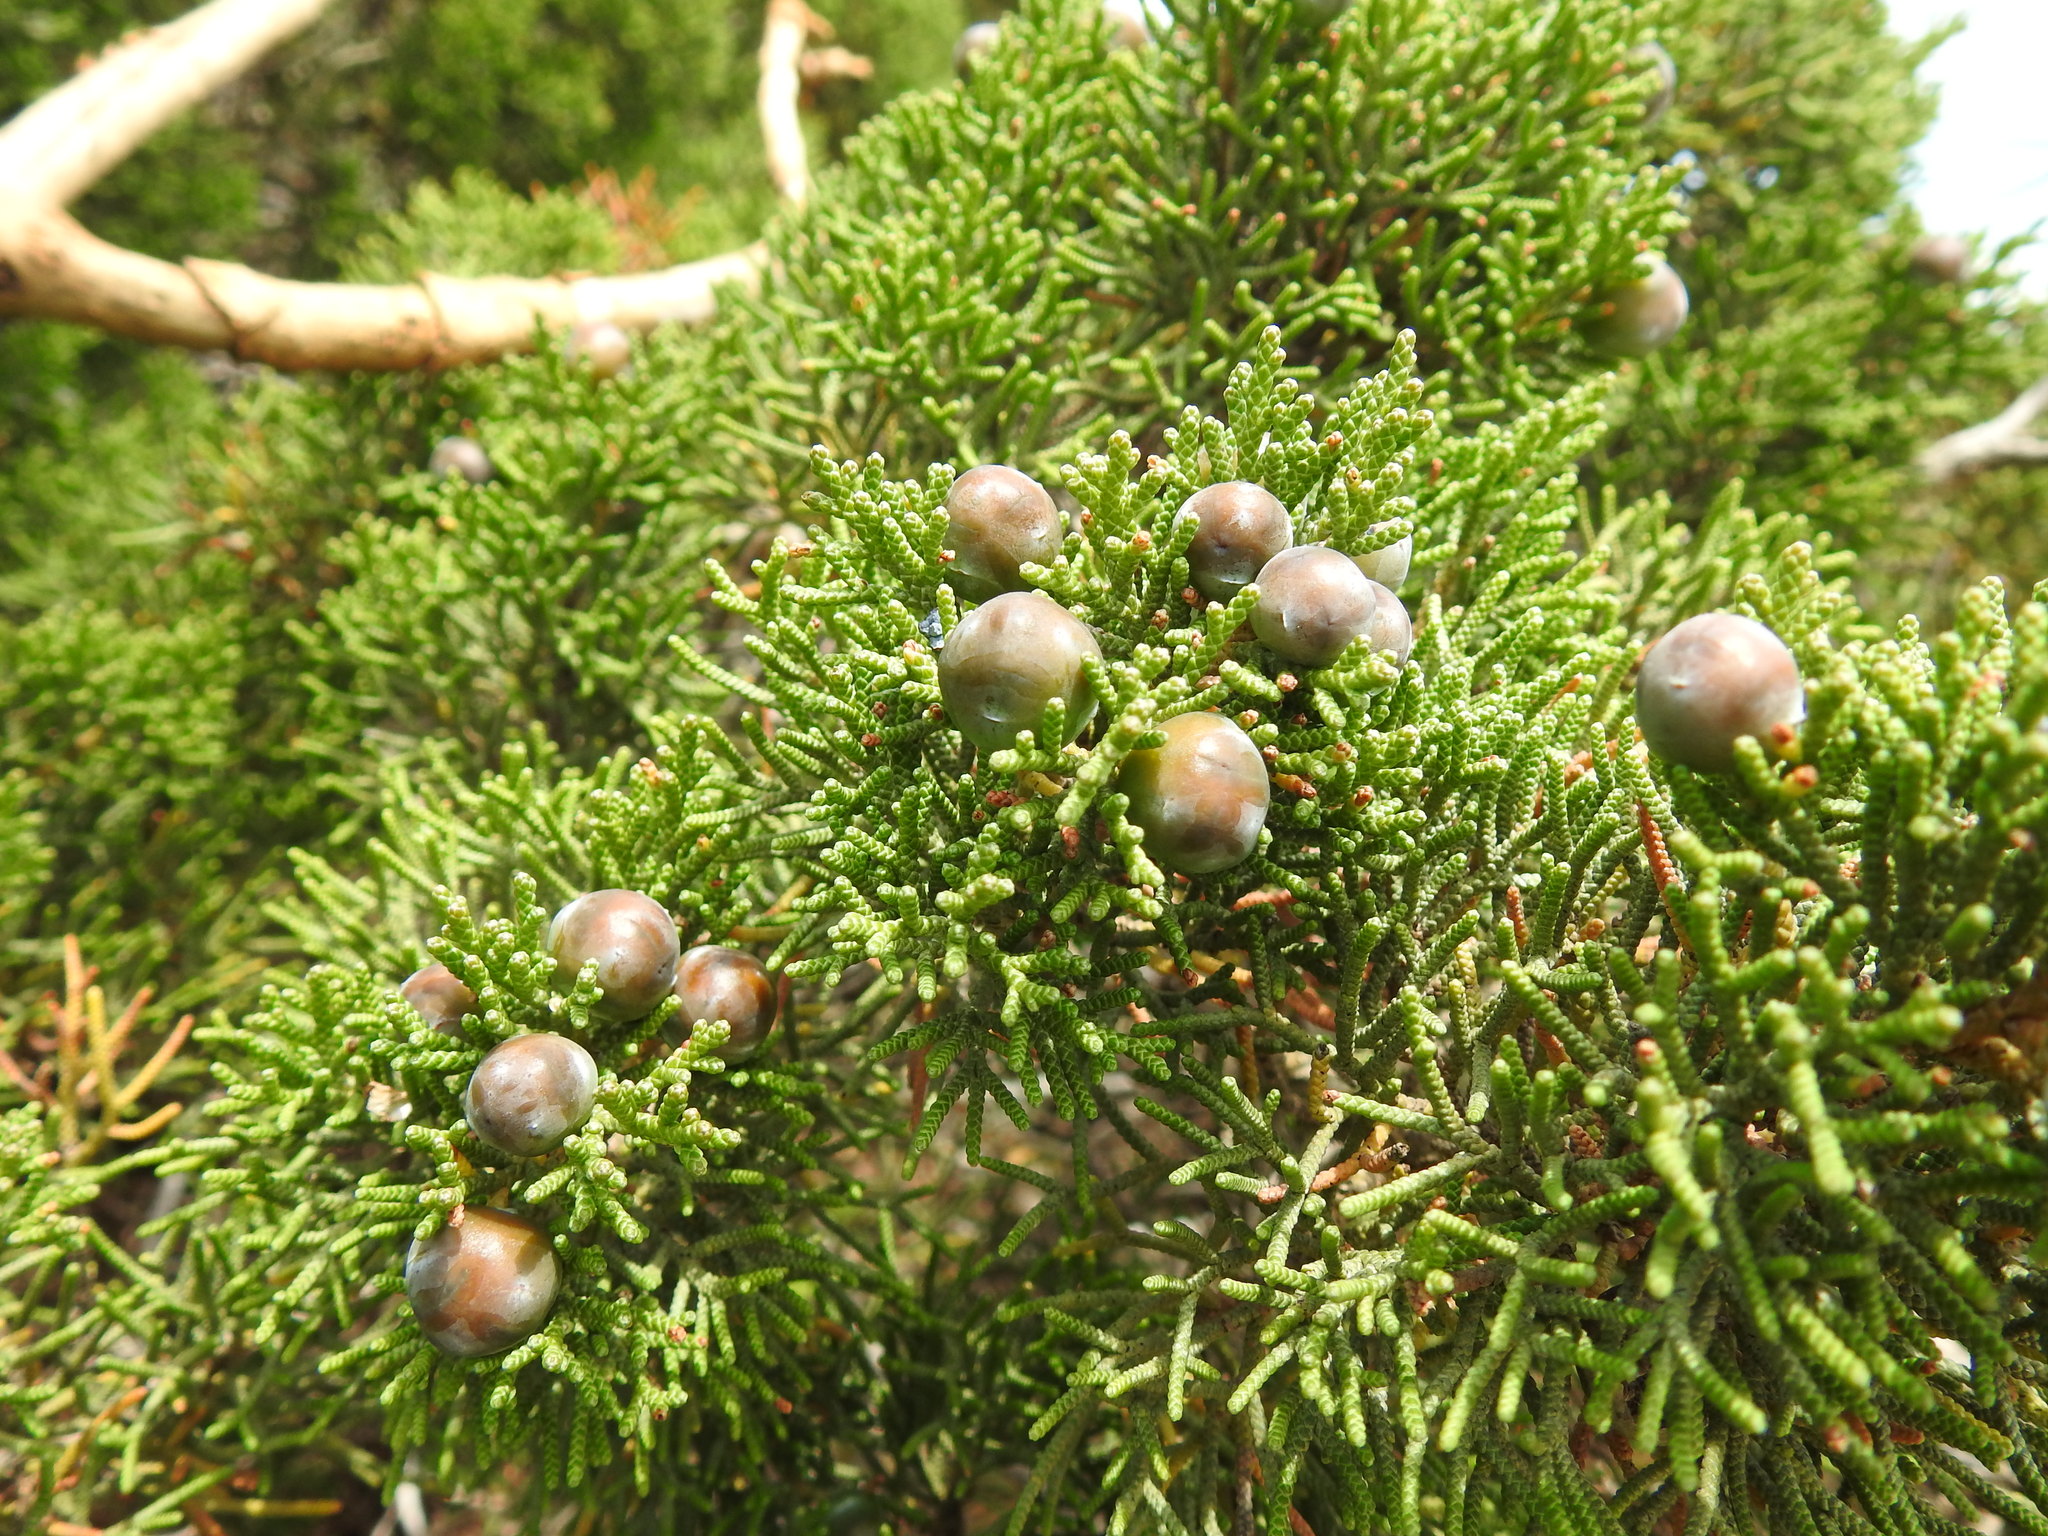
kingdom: Plantae
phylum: Tracheophyta
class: Pinopsida
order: Pinales
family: Cupressaceae
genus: Juniperus
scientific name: Juniperus phoenicea
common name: Phoenician juniper
